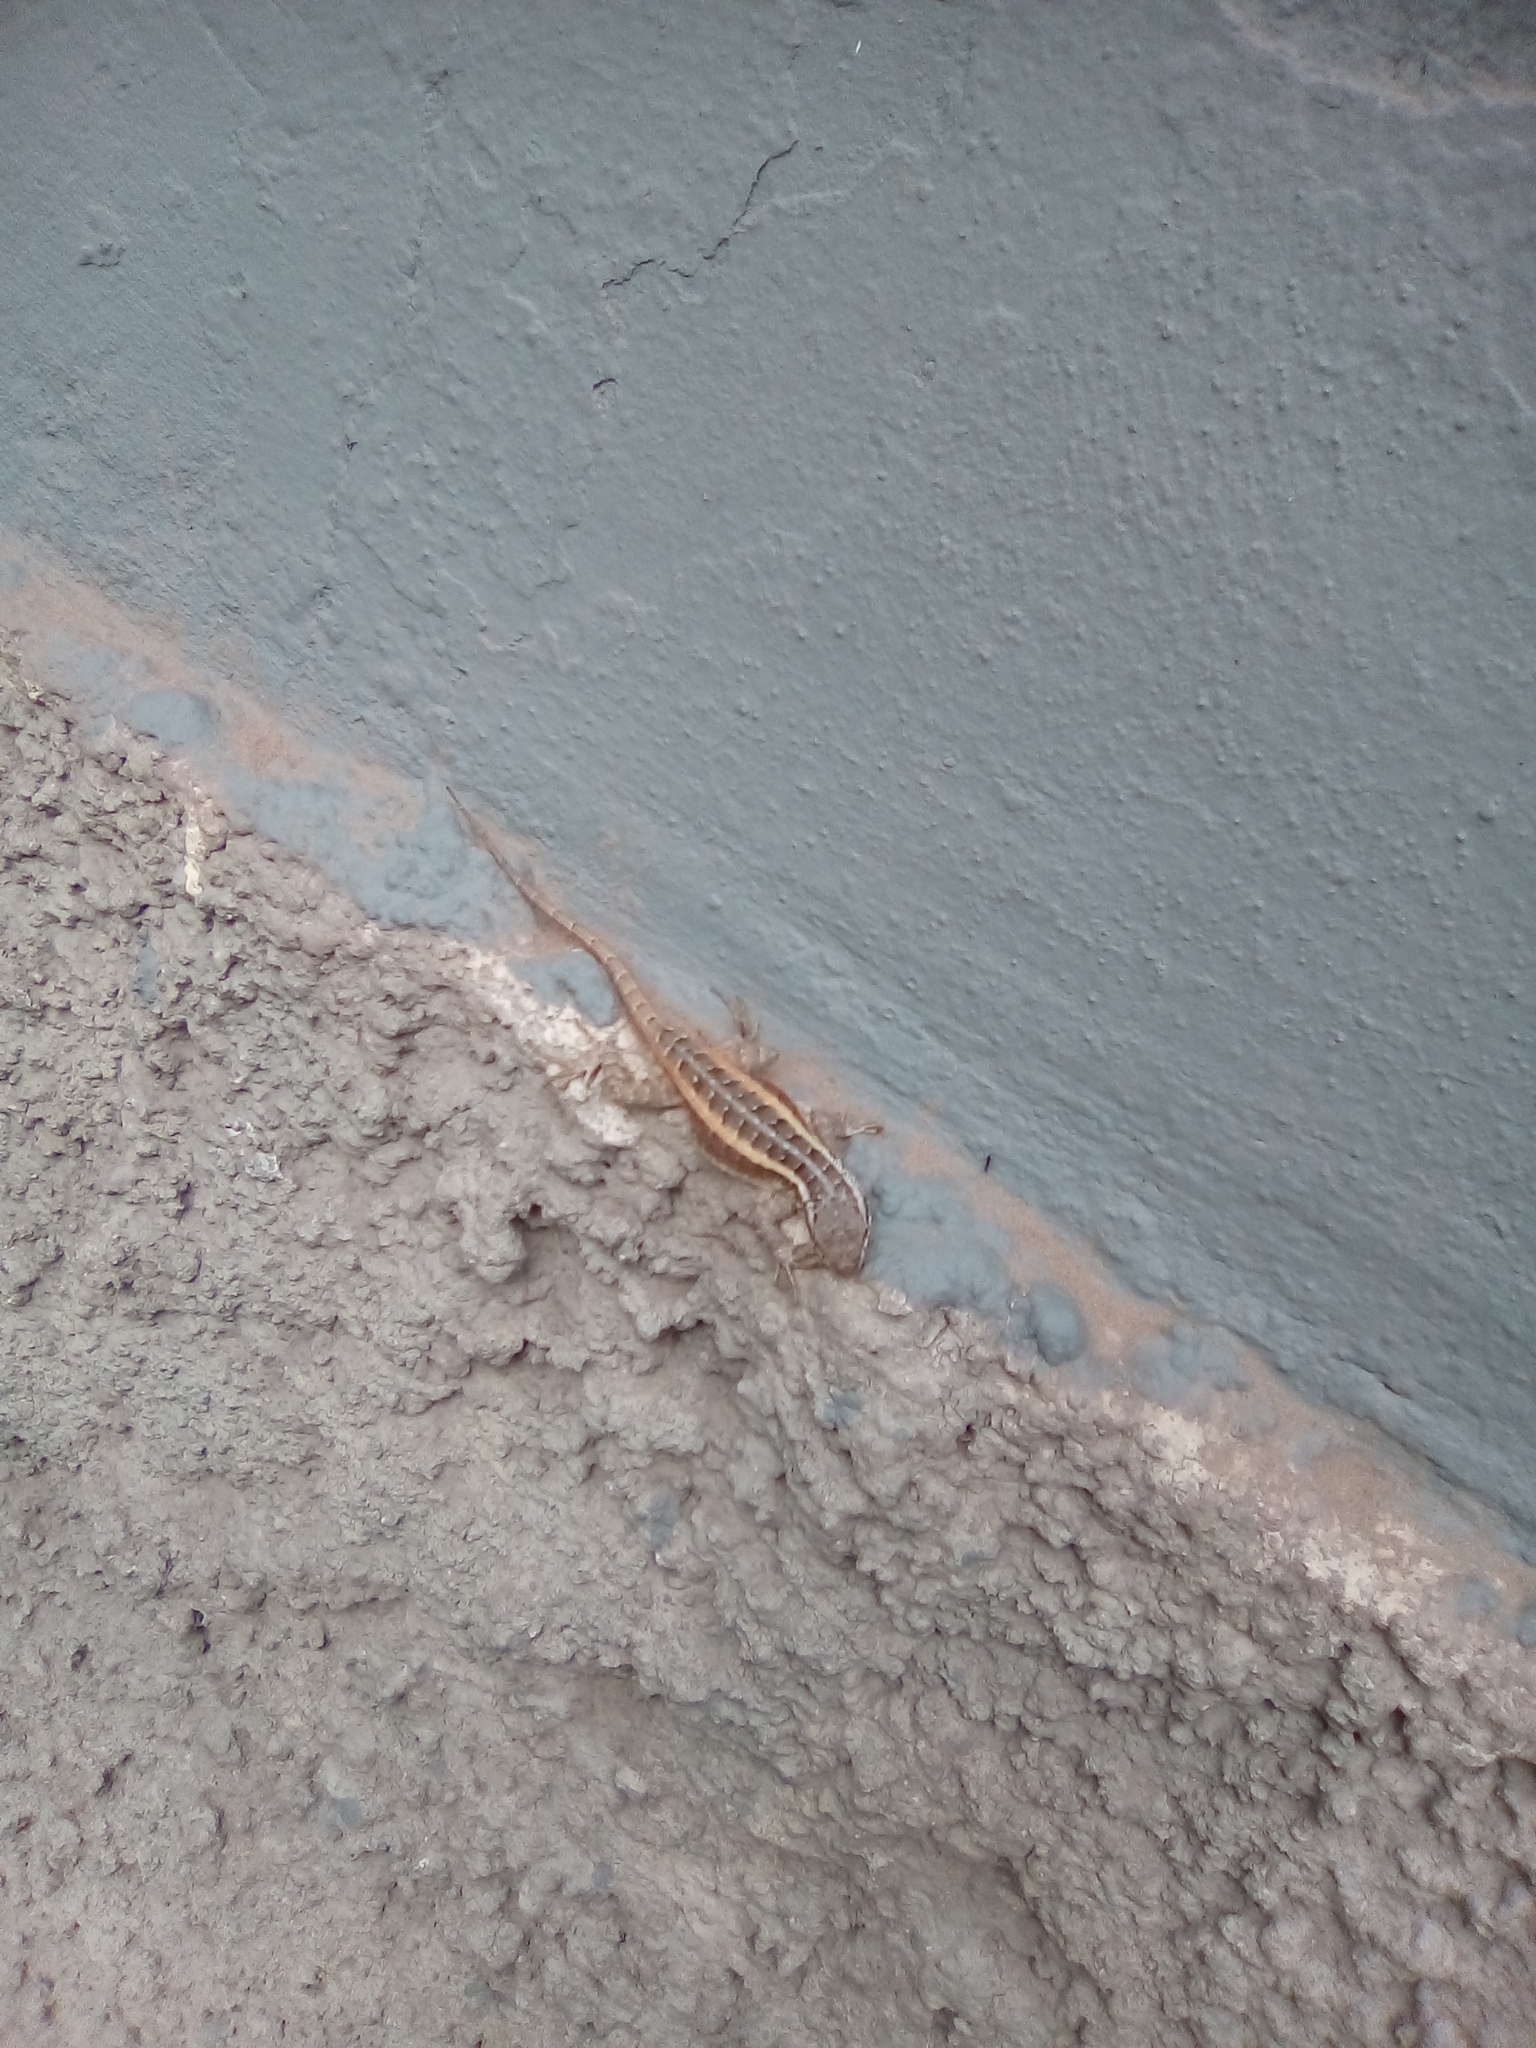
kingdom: Animalia
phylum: Chordata
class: Squamata
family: Phrynosomatidae
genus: Sceloporus
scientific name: Sceloporus variabilis
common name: Rosebelly lizard
